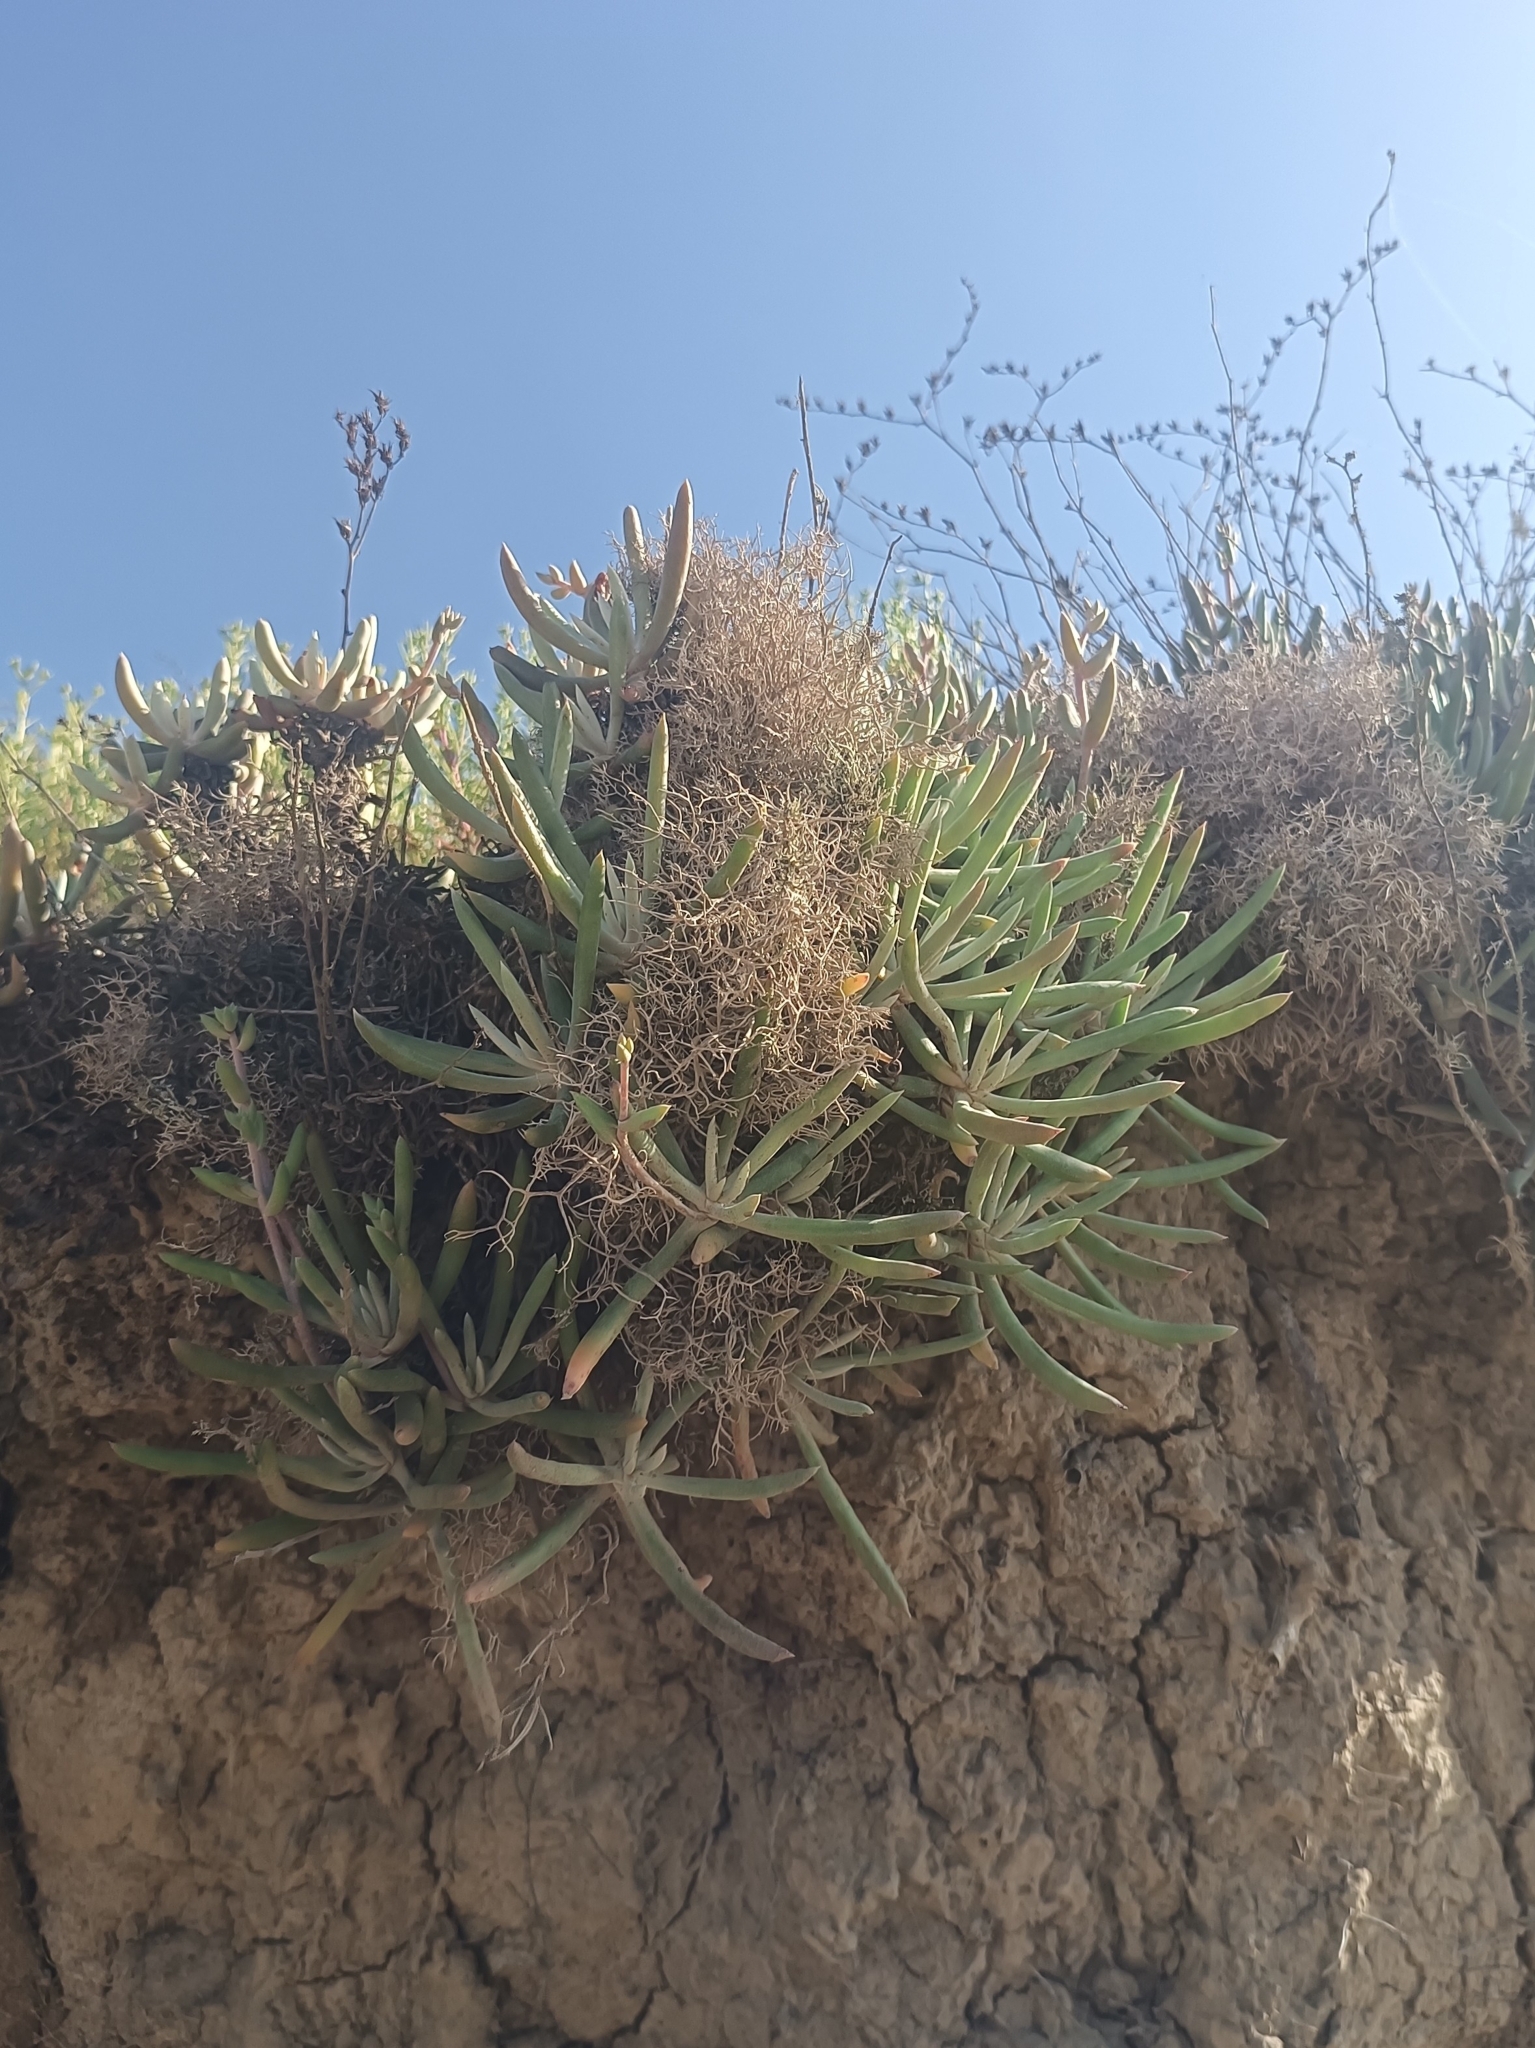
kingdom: Plantae
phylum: Tracheophyta
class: Magnoliopsida
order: Saxifragales
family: Crassulaceae
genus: Dudleya
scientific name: Dudleya attenuata
